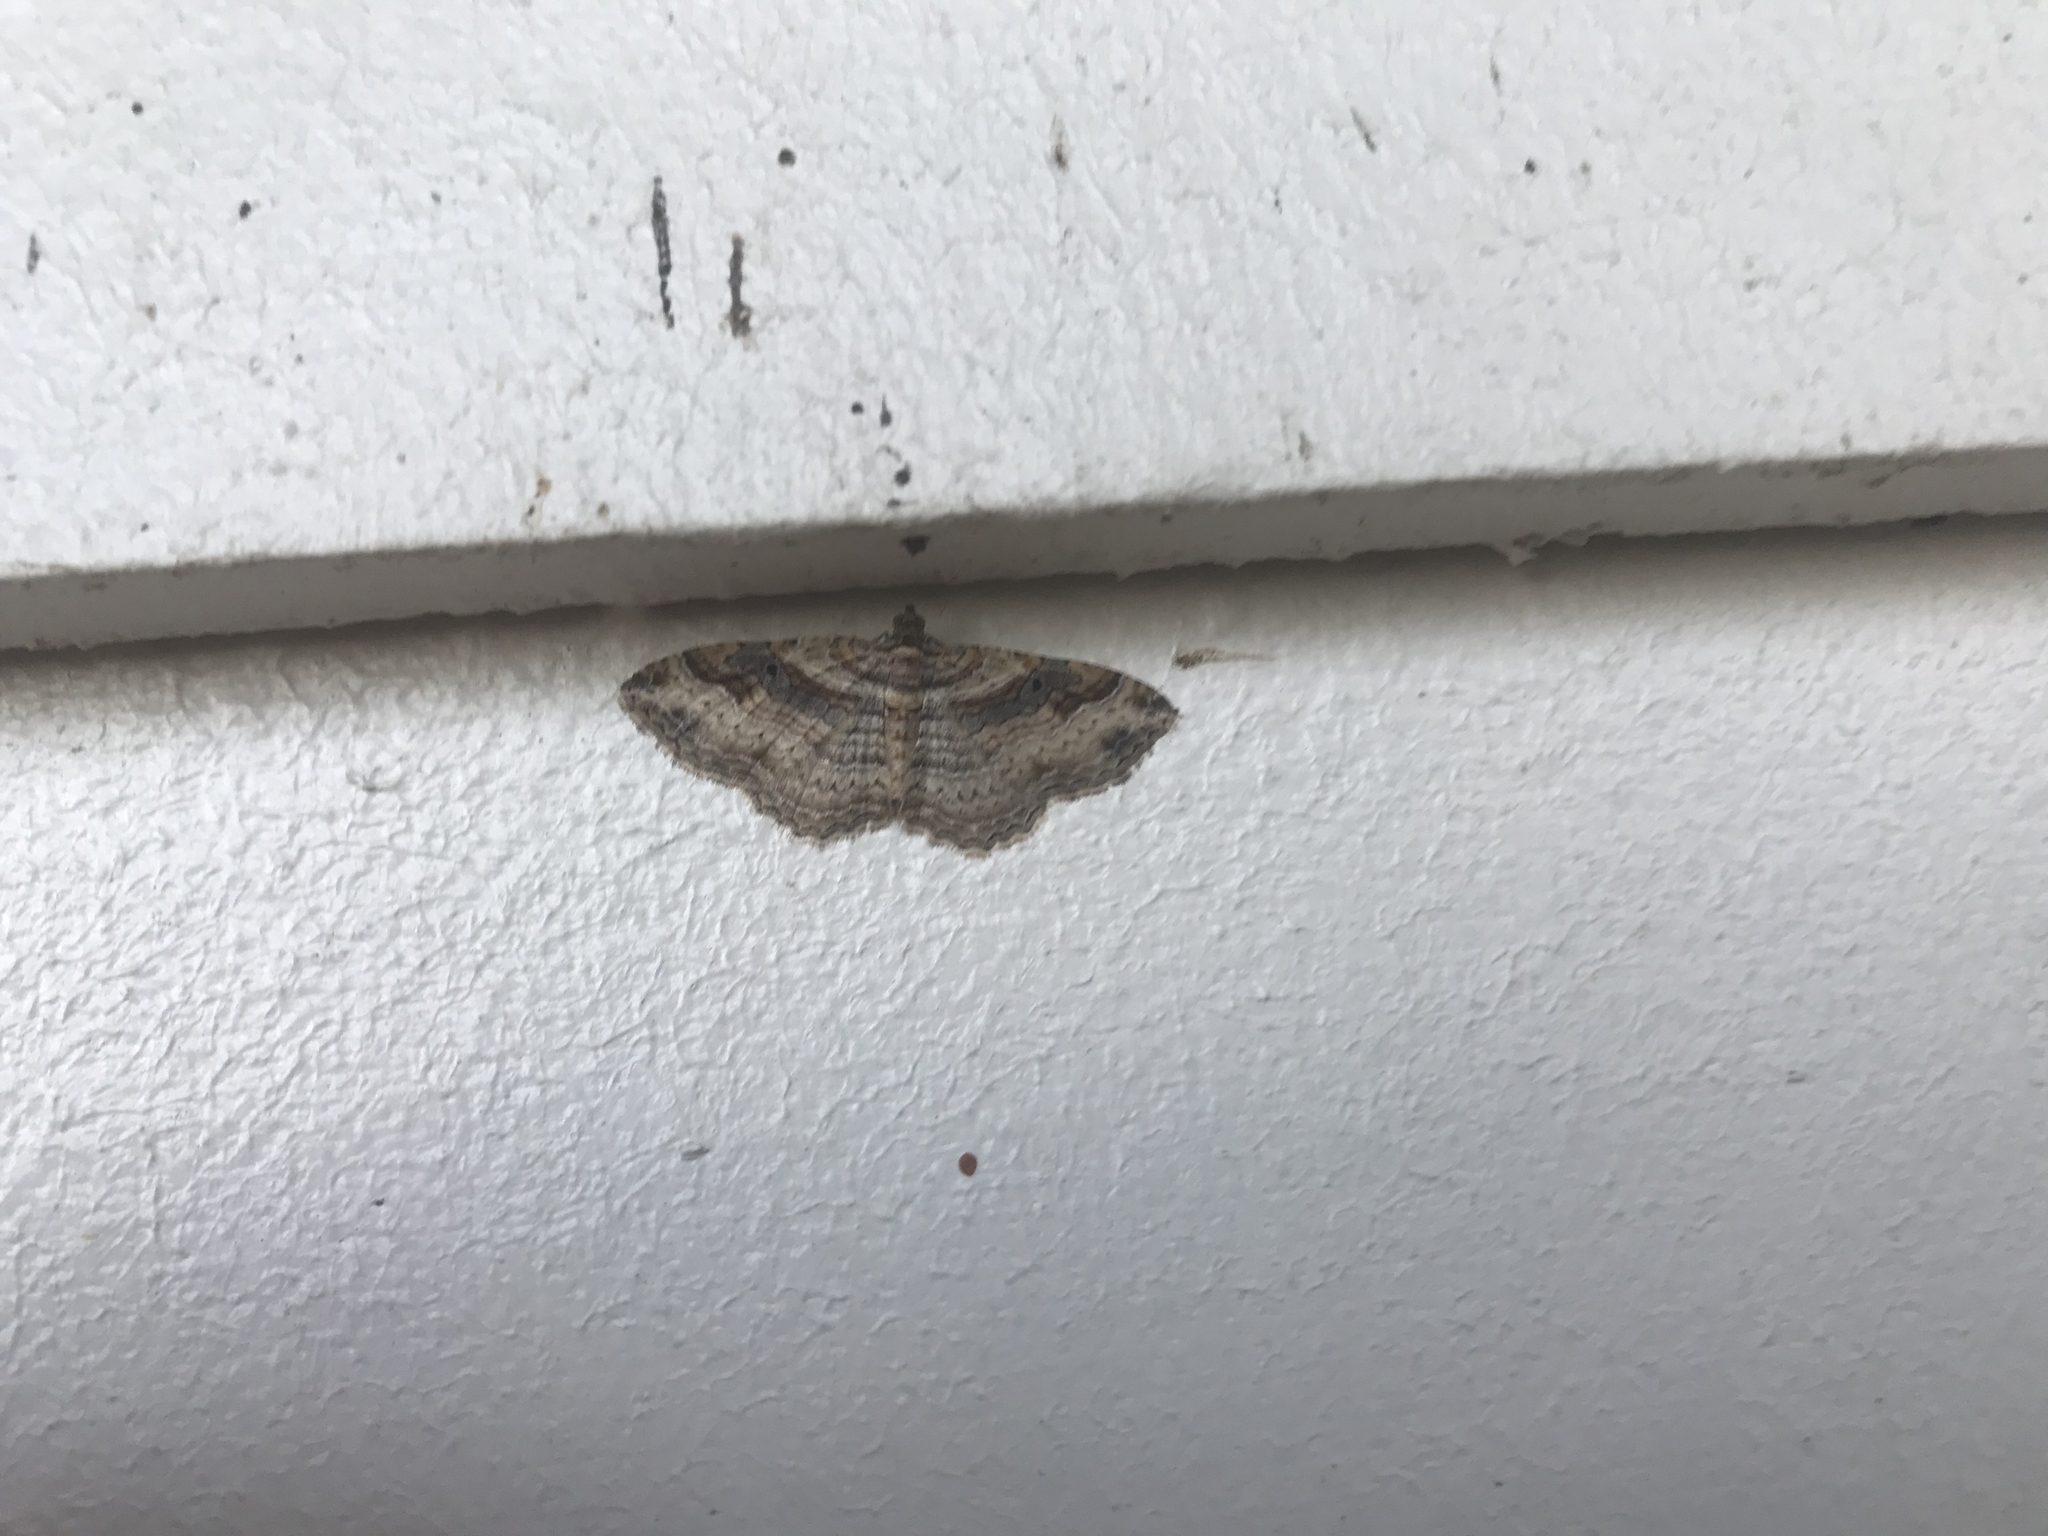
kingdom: Animalia
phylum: Arthropoda
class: Insecta
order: Lepidoptera
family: Geometridae
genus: Costaconvexa
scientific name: Costaconvexa centrostrigaria
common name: Bent-line carpet
